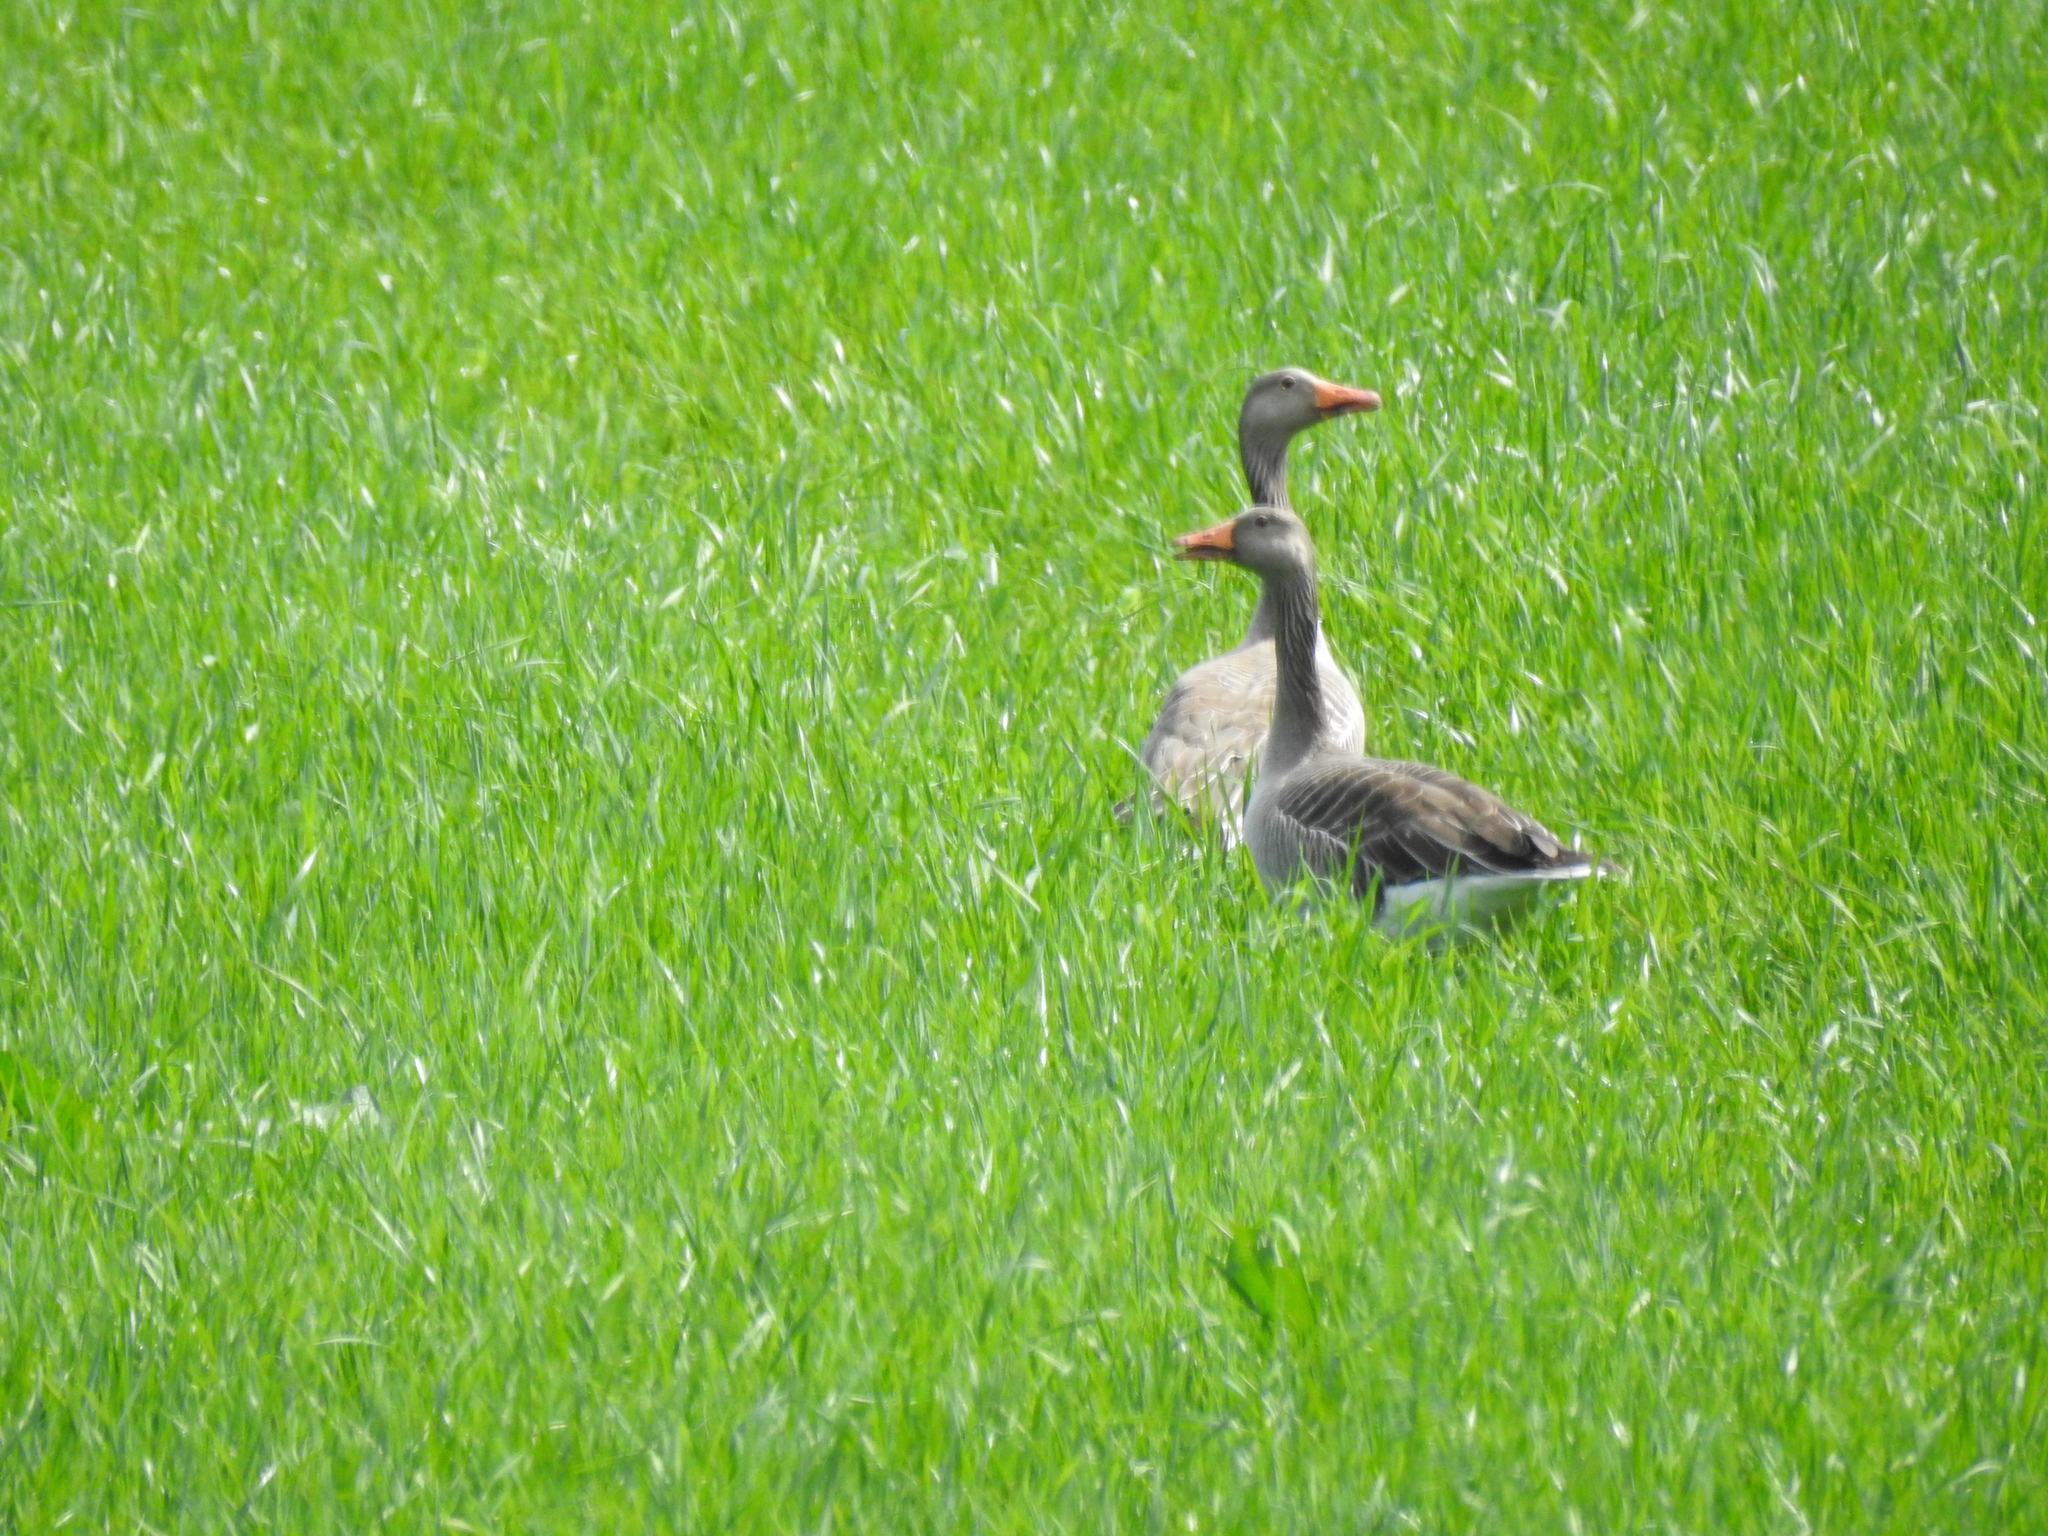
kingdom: Animalia
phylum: Chordata
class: Aves
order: Anseriformes
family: Anatidae
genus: Anser
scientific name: Anser anser
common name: Greylag goose
